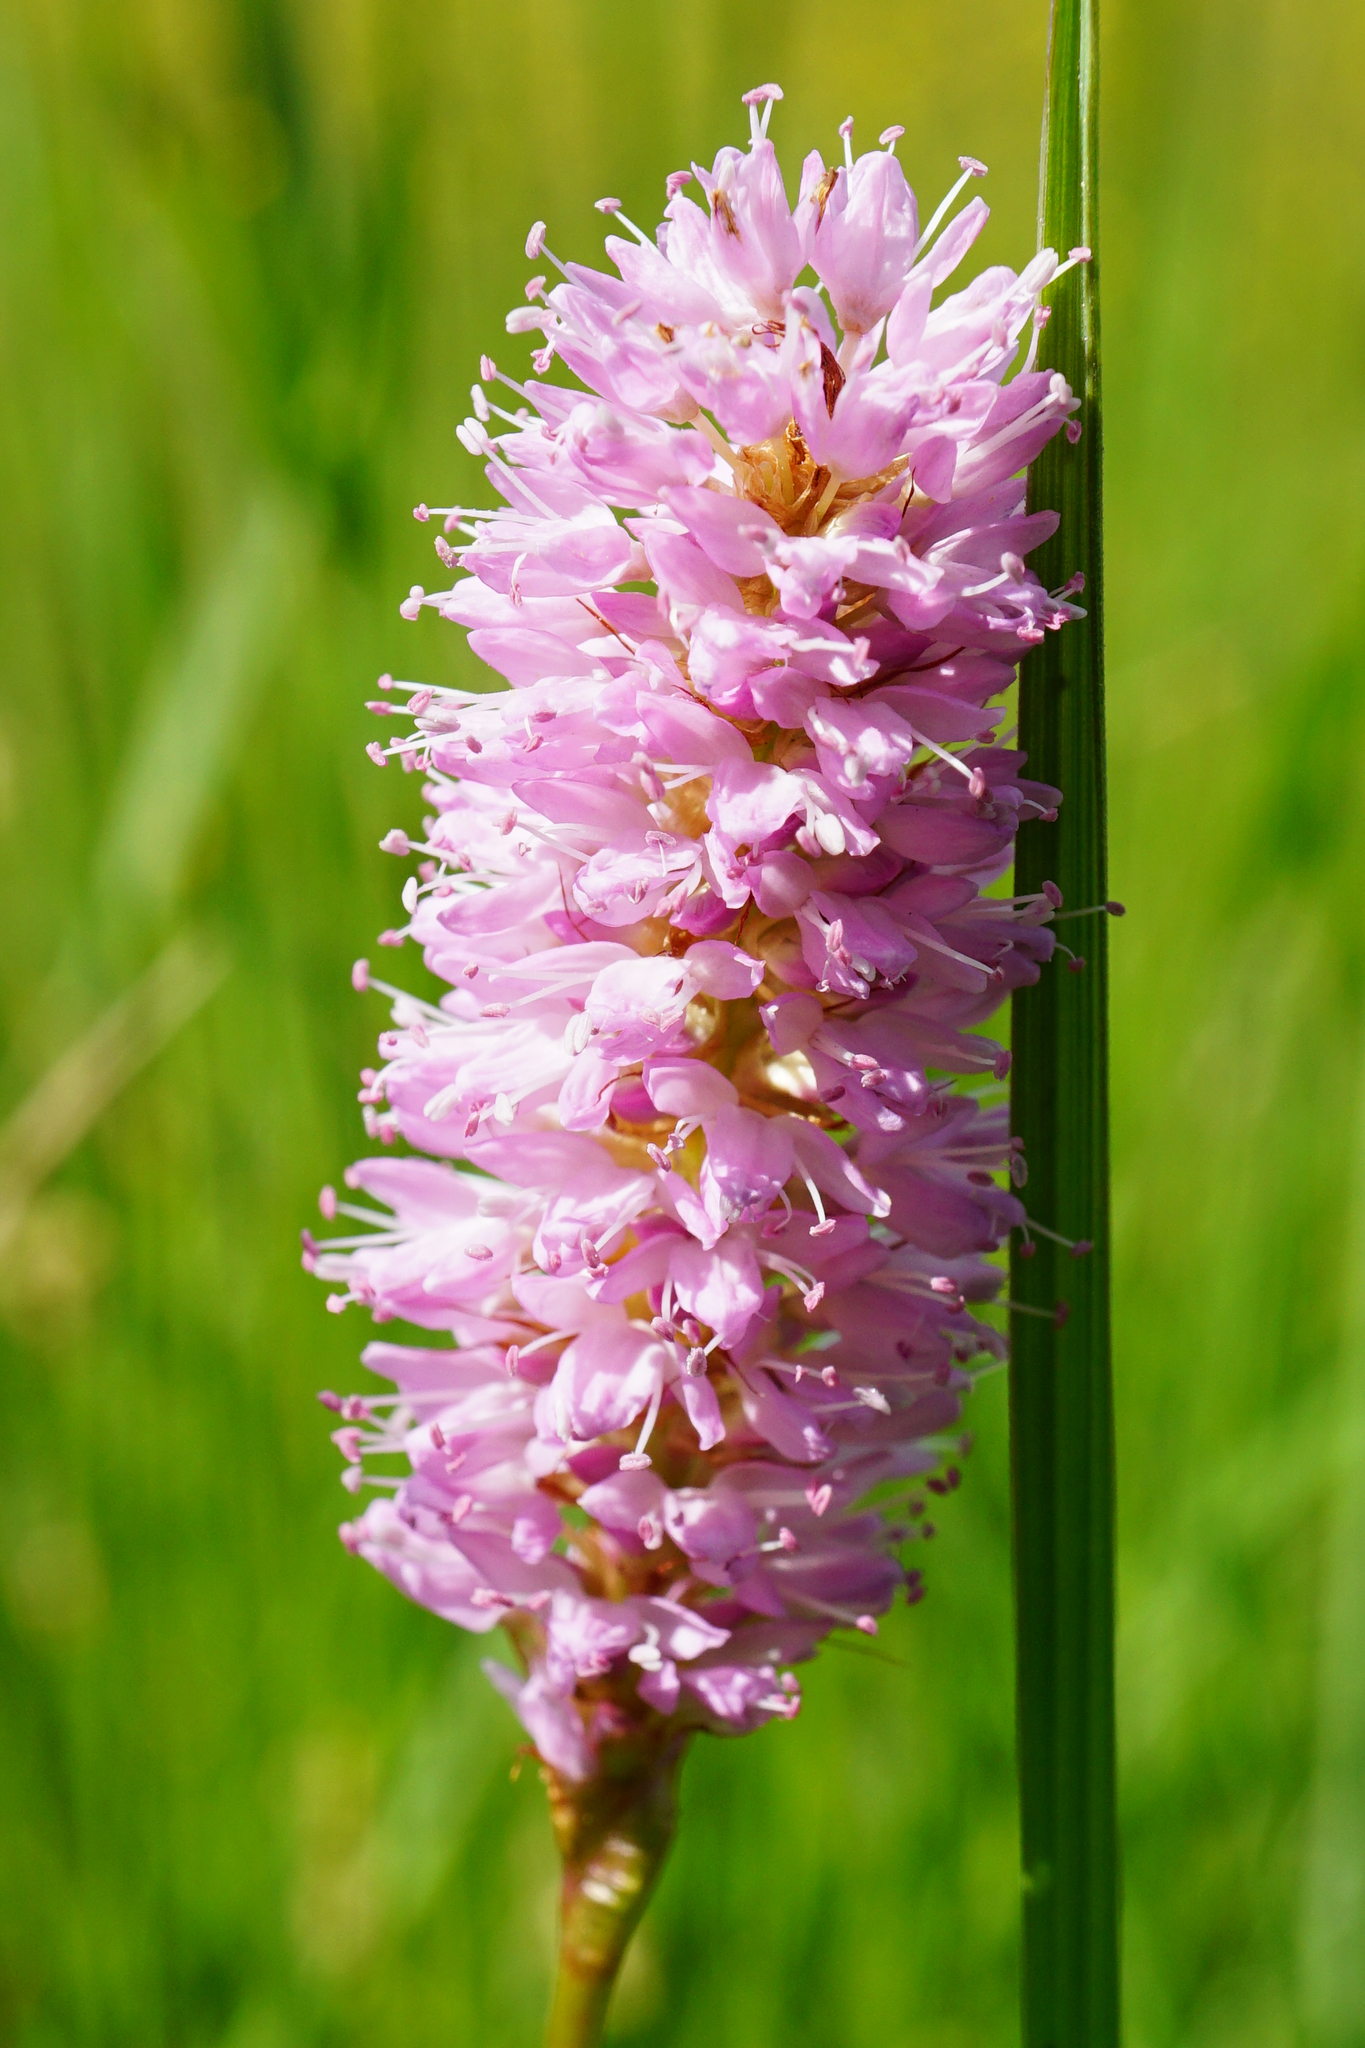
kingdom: Plantae
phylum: Tracheophyta
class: Magnoliopsida
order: Caryophyllales
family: Polygonaceae
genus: Bistorta
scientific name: Bistorta officinalis
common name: Common bistort
